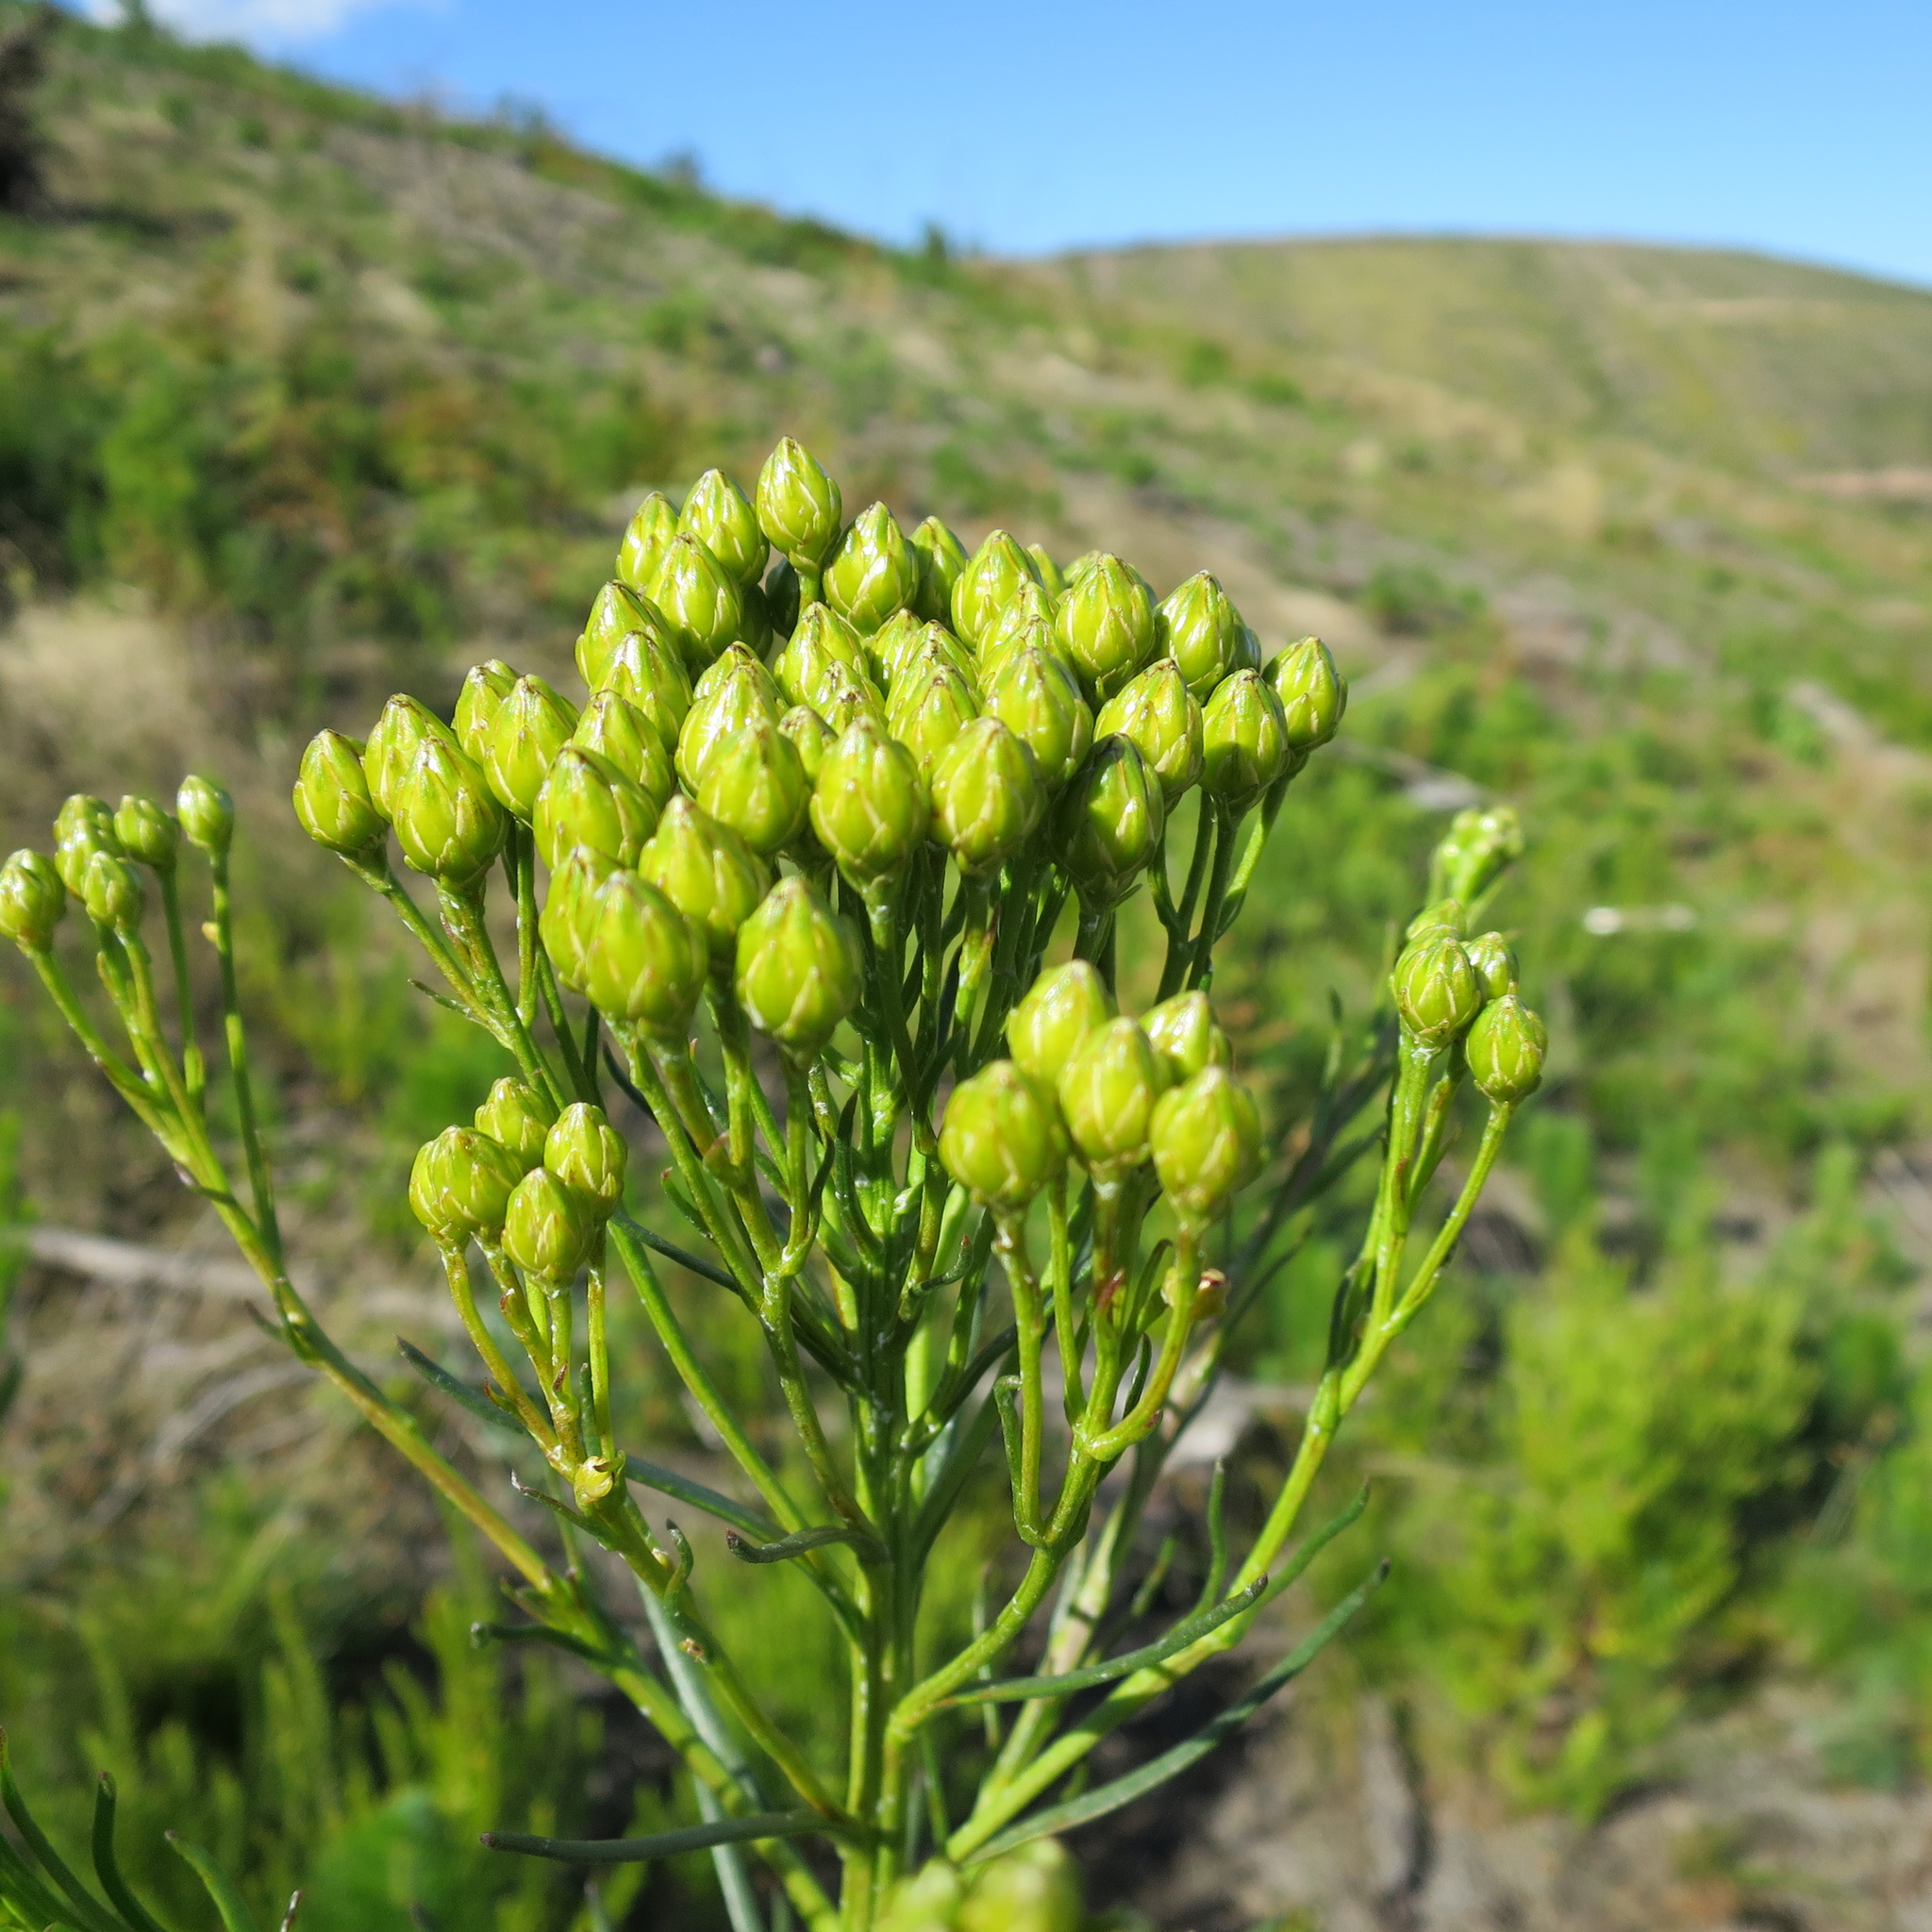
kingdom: Plantae
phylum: Tracheophyta
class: Magnoliopsida
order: Asterales
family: Asteraceae
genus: Athanasia
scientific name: Athanasia linifolia
